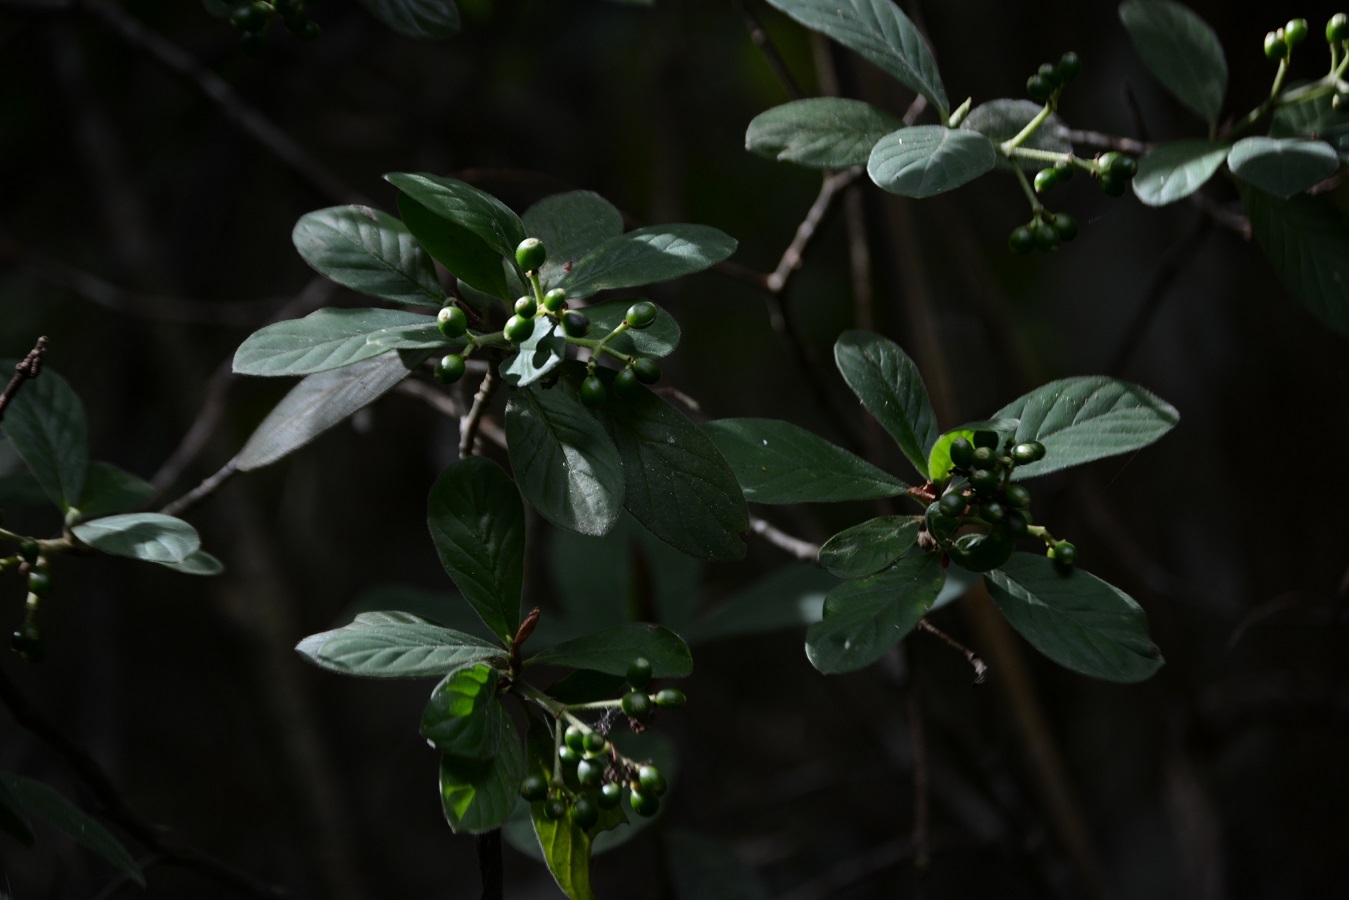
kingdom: Plantae
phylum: Tracheophyta
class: Magnoliopsida
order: Gentianales
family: Rubiaceae
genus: Psychotria
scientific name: Psychotria erythrocarpa
